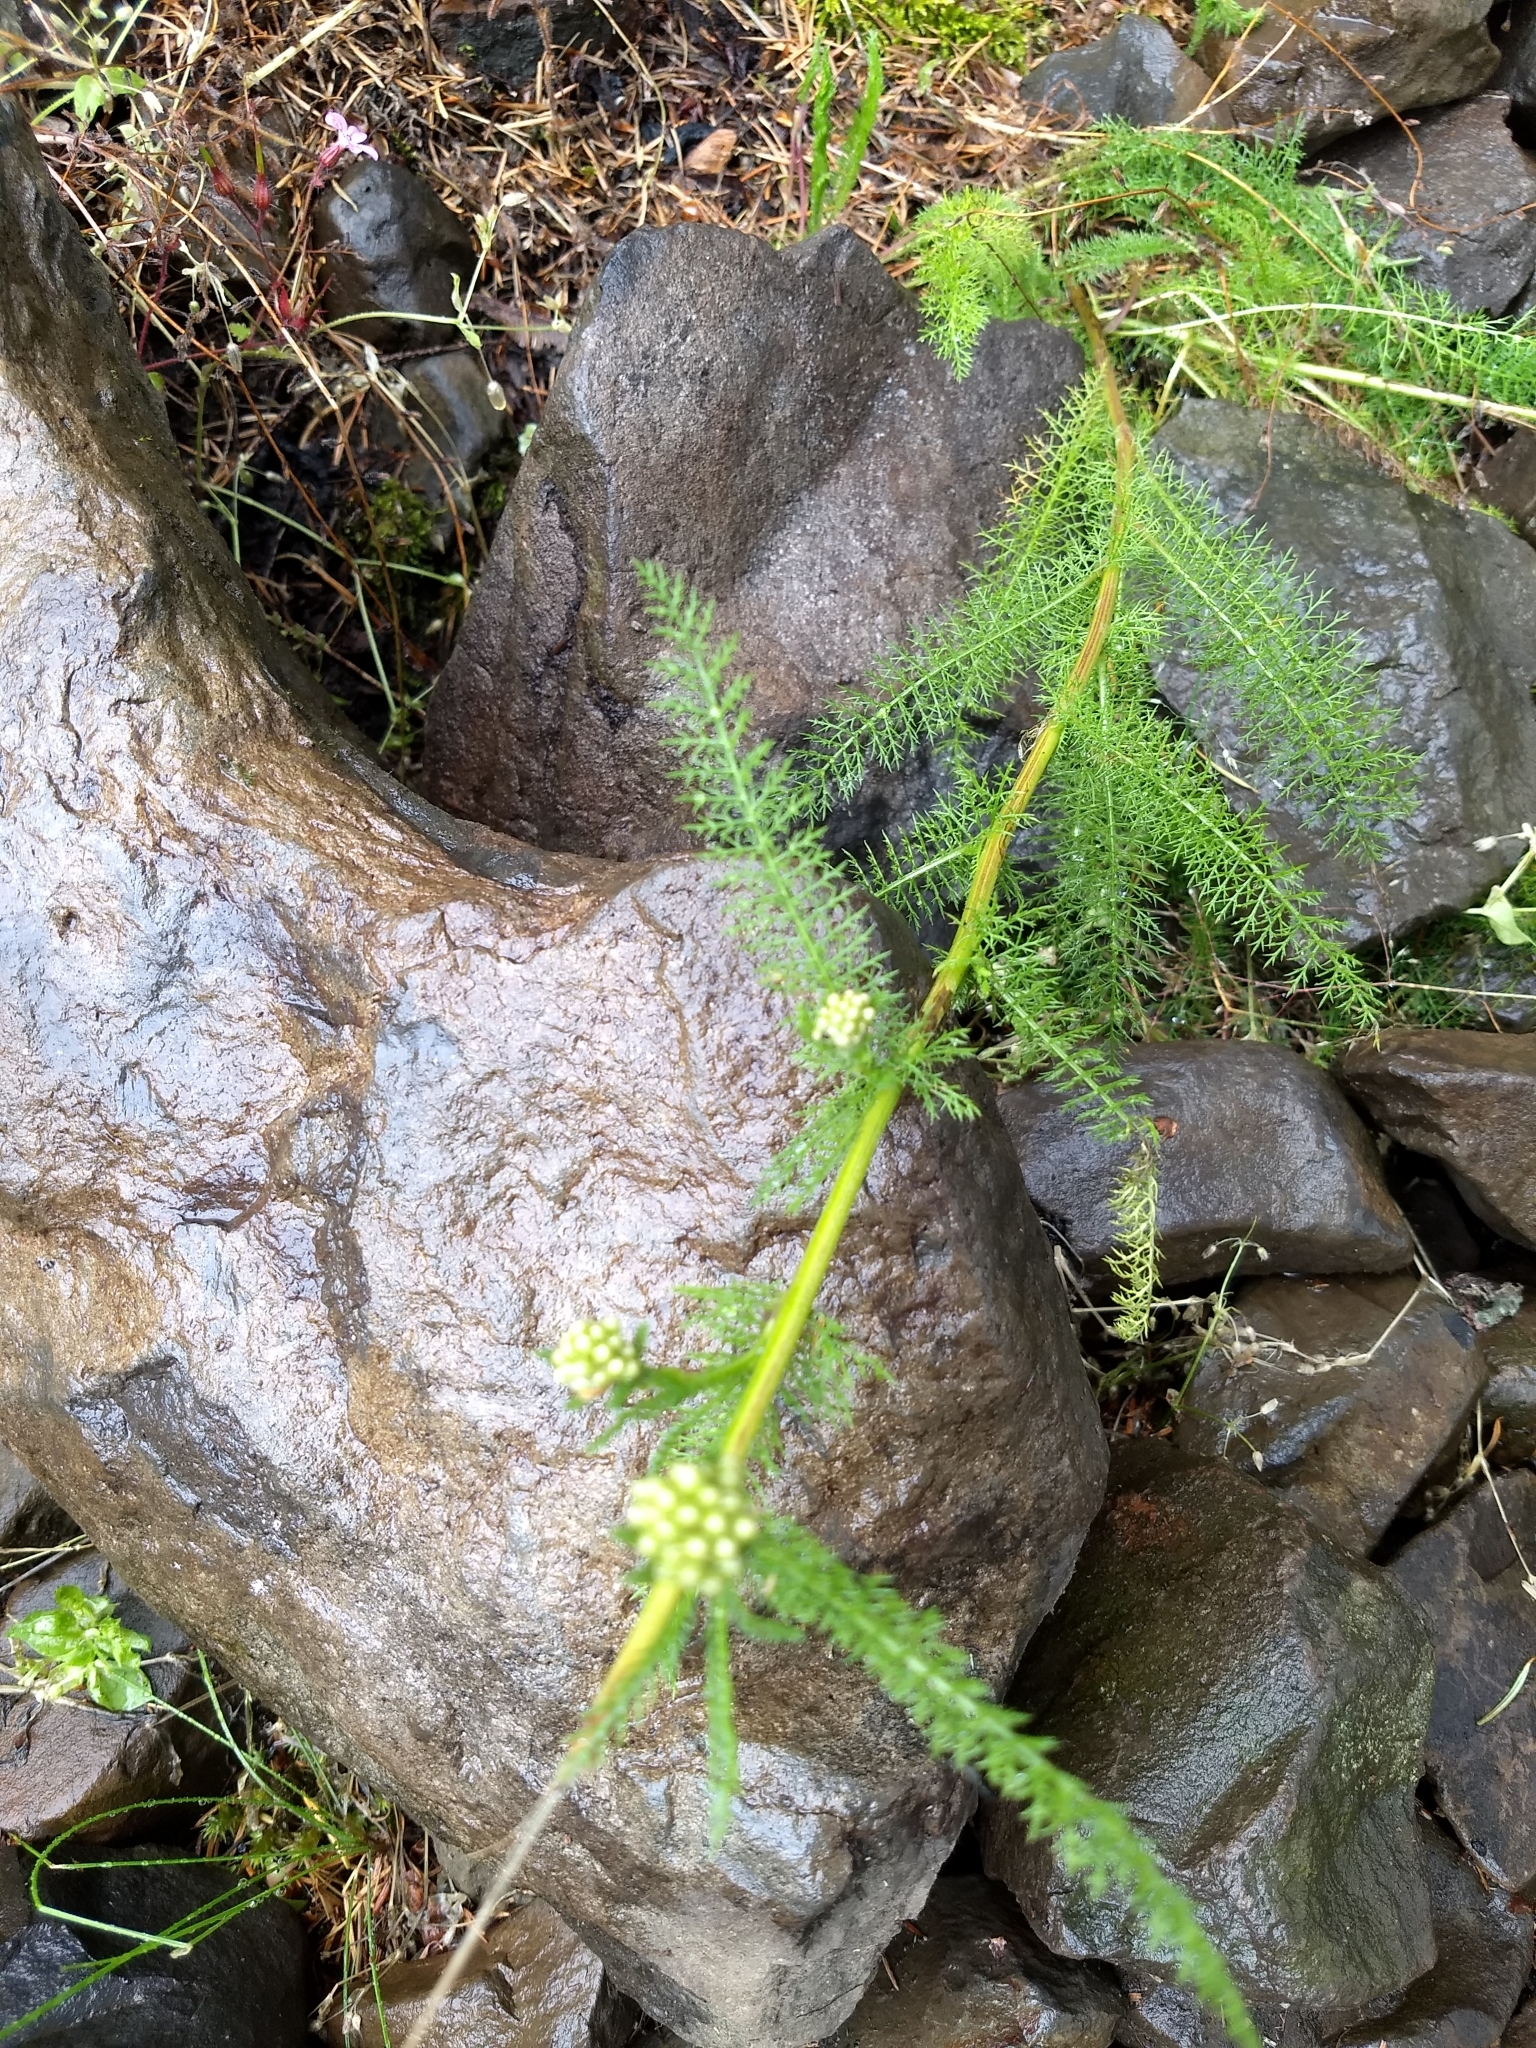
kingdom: Plantae
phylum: Tracheophyta
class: Magnoliopsida
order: Asterales
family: Asteraceae
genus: Achillea
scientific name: Achillea millefolium
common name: Yarrow
